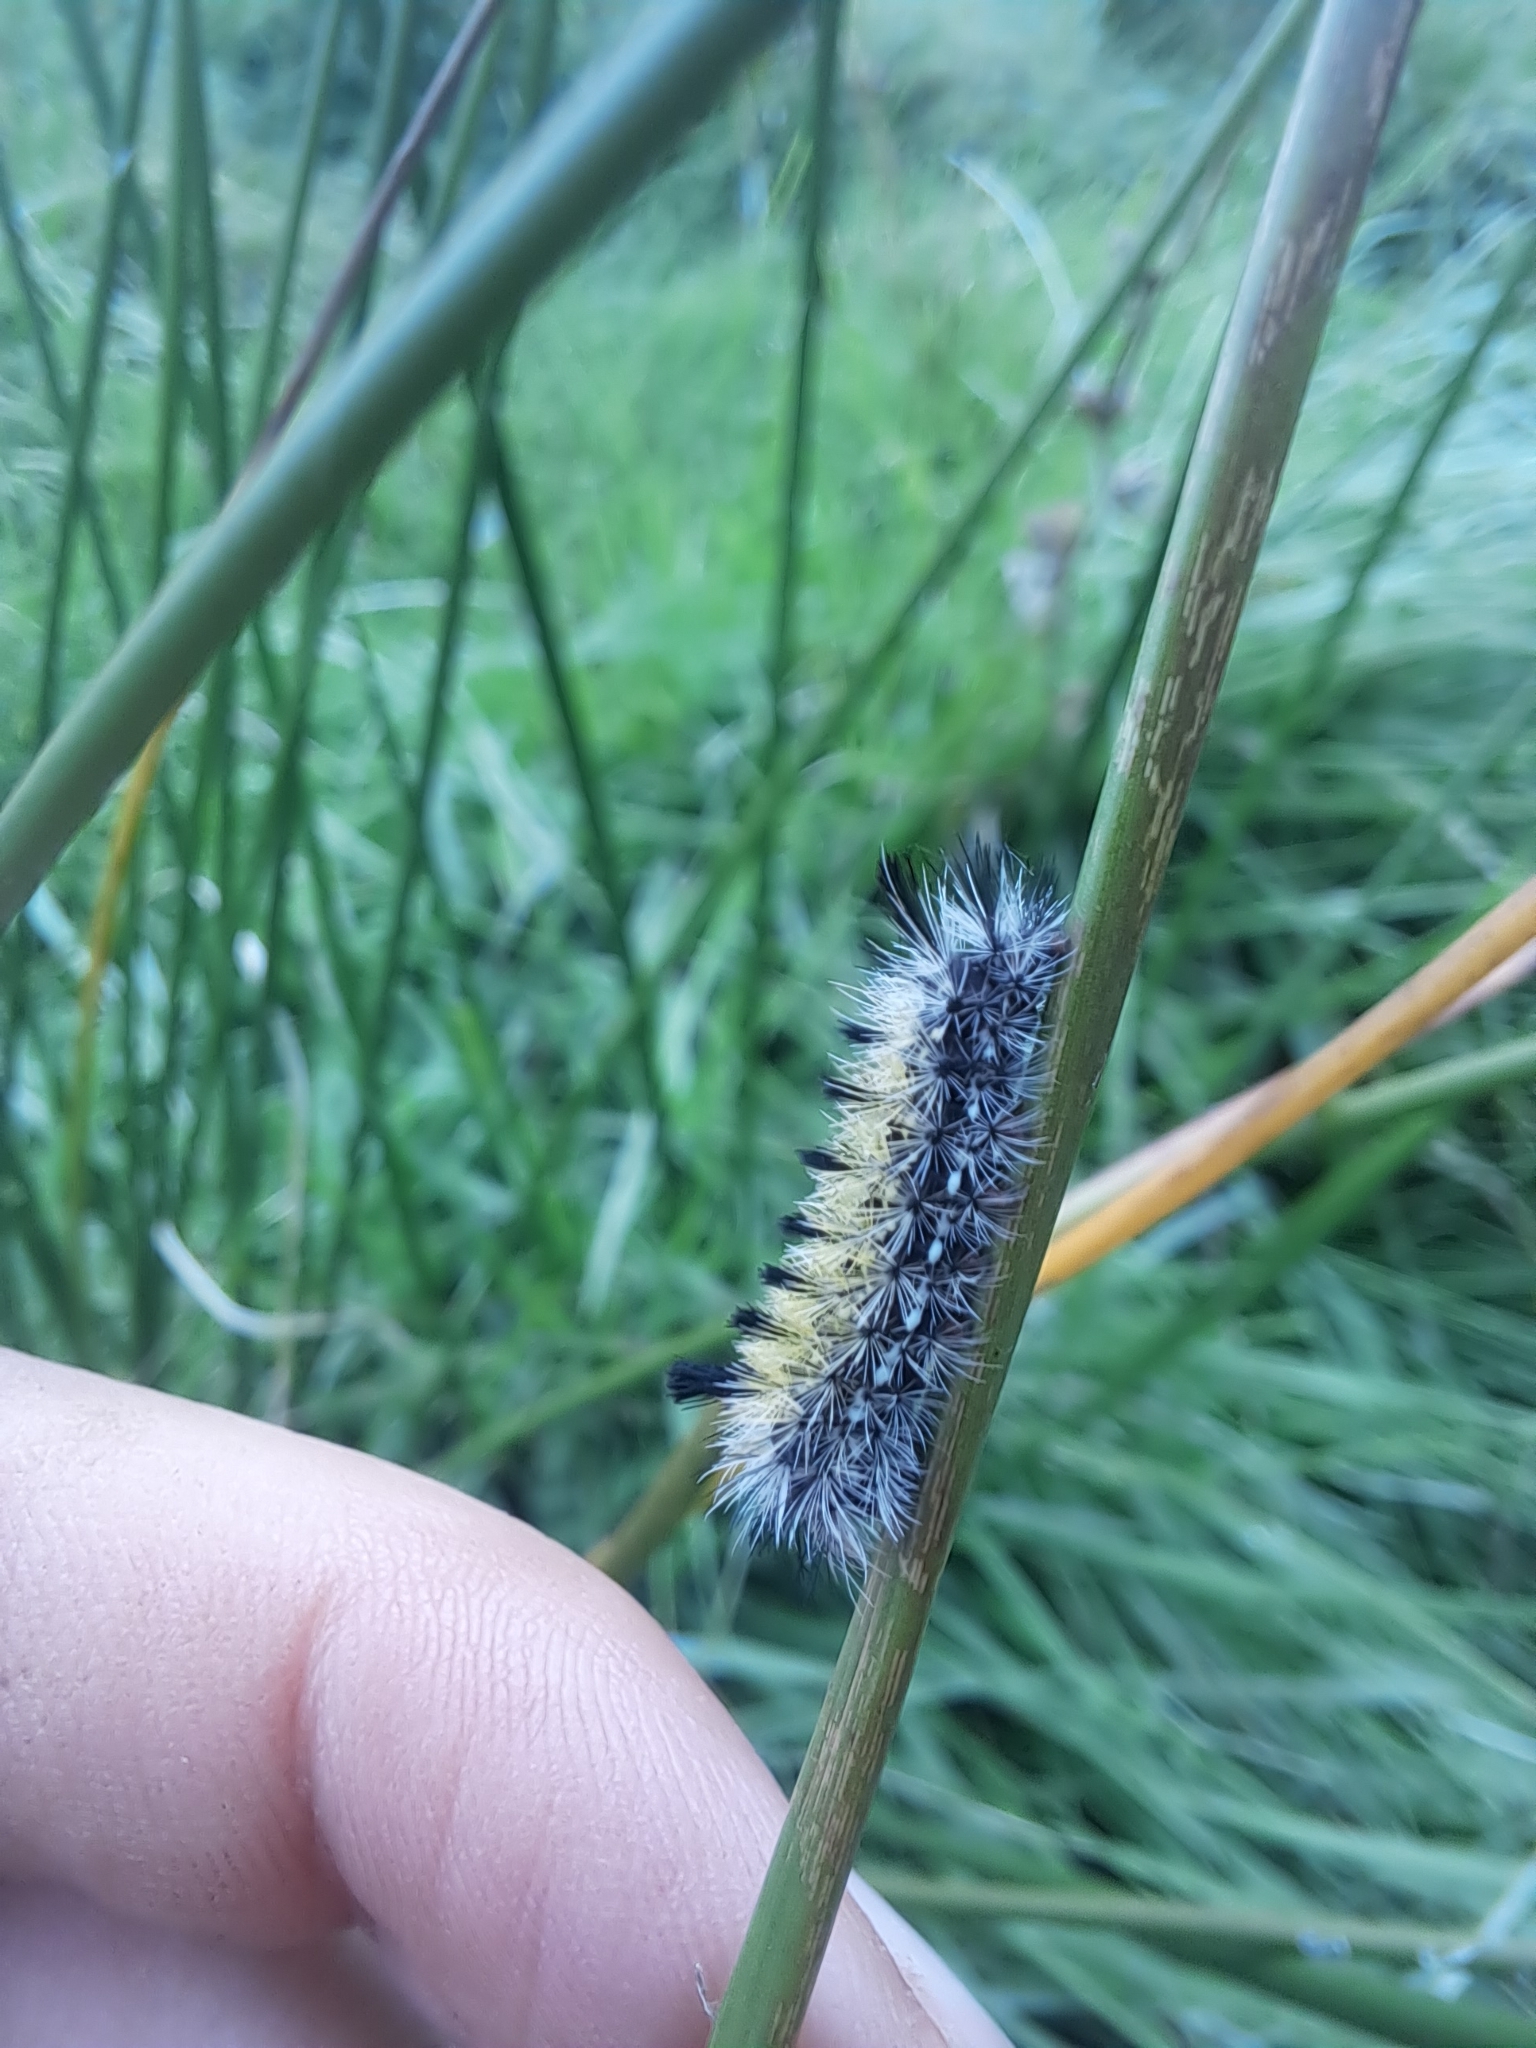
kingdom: Animalia
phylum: Arthropoda
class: Insecta
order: Lepidoptera
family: Erebidae
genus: Ctenucha
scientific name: Ctenucha virginica
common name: Virginia ctenucha moth
